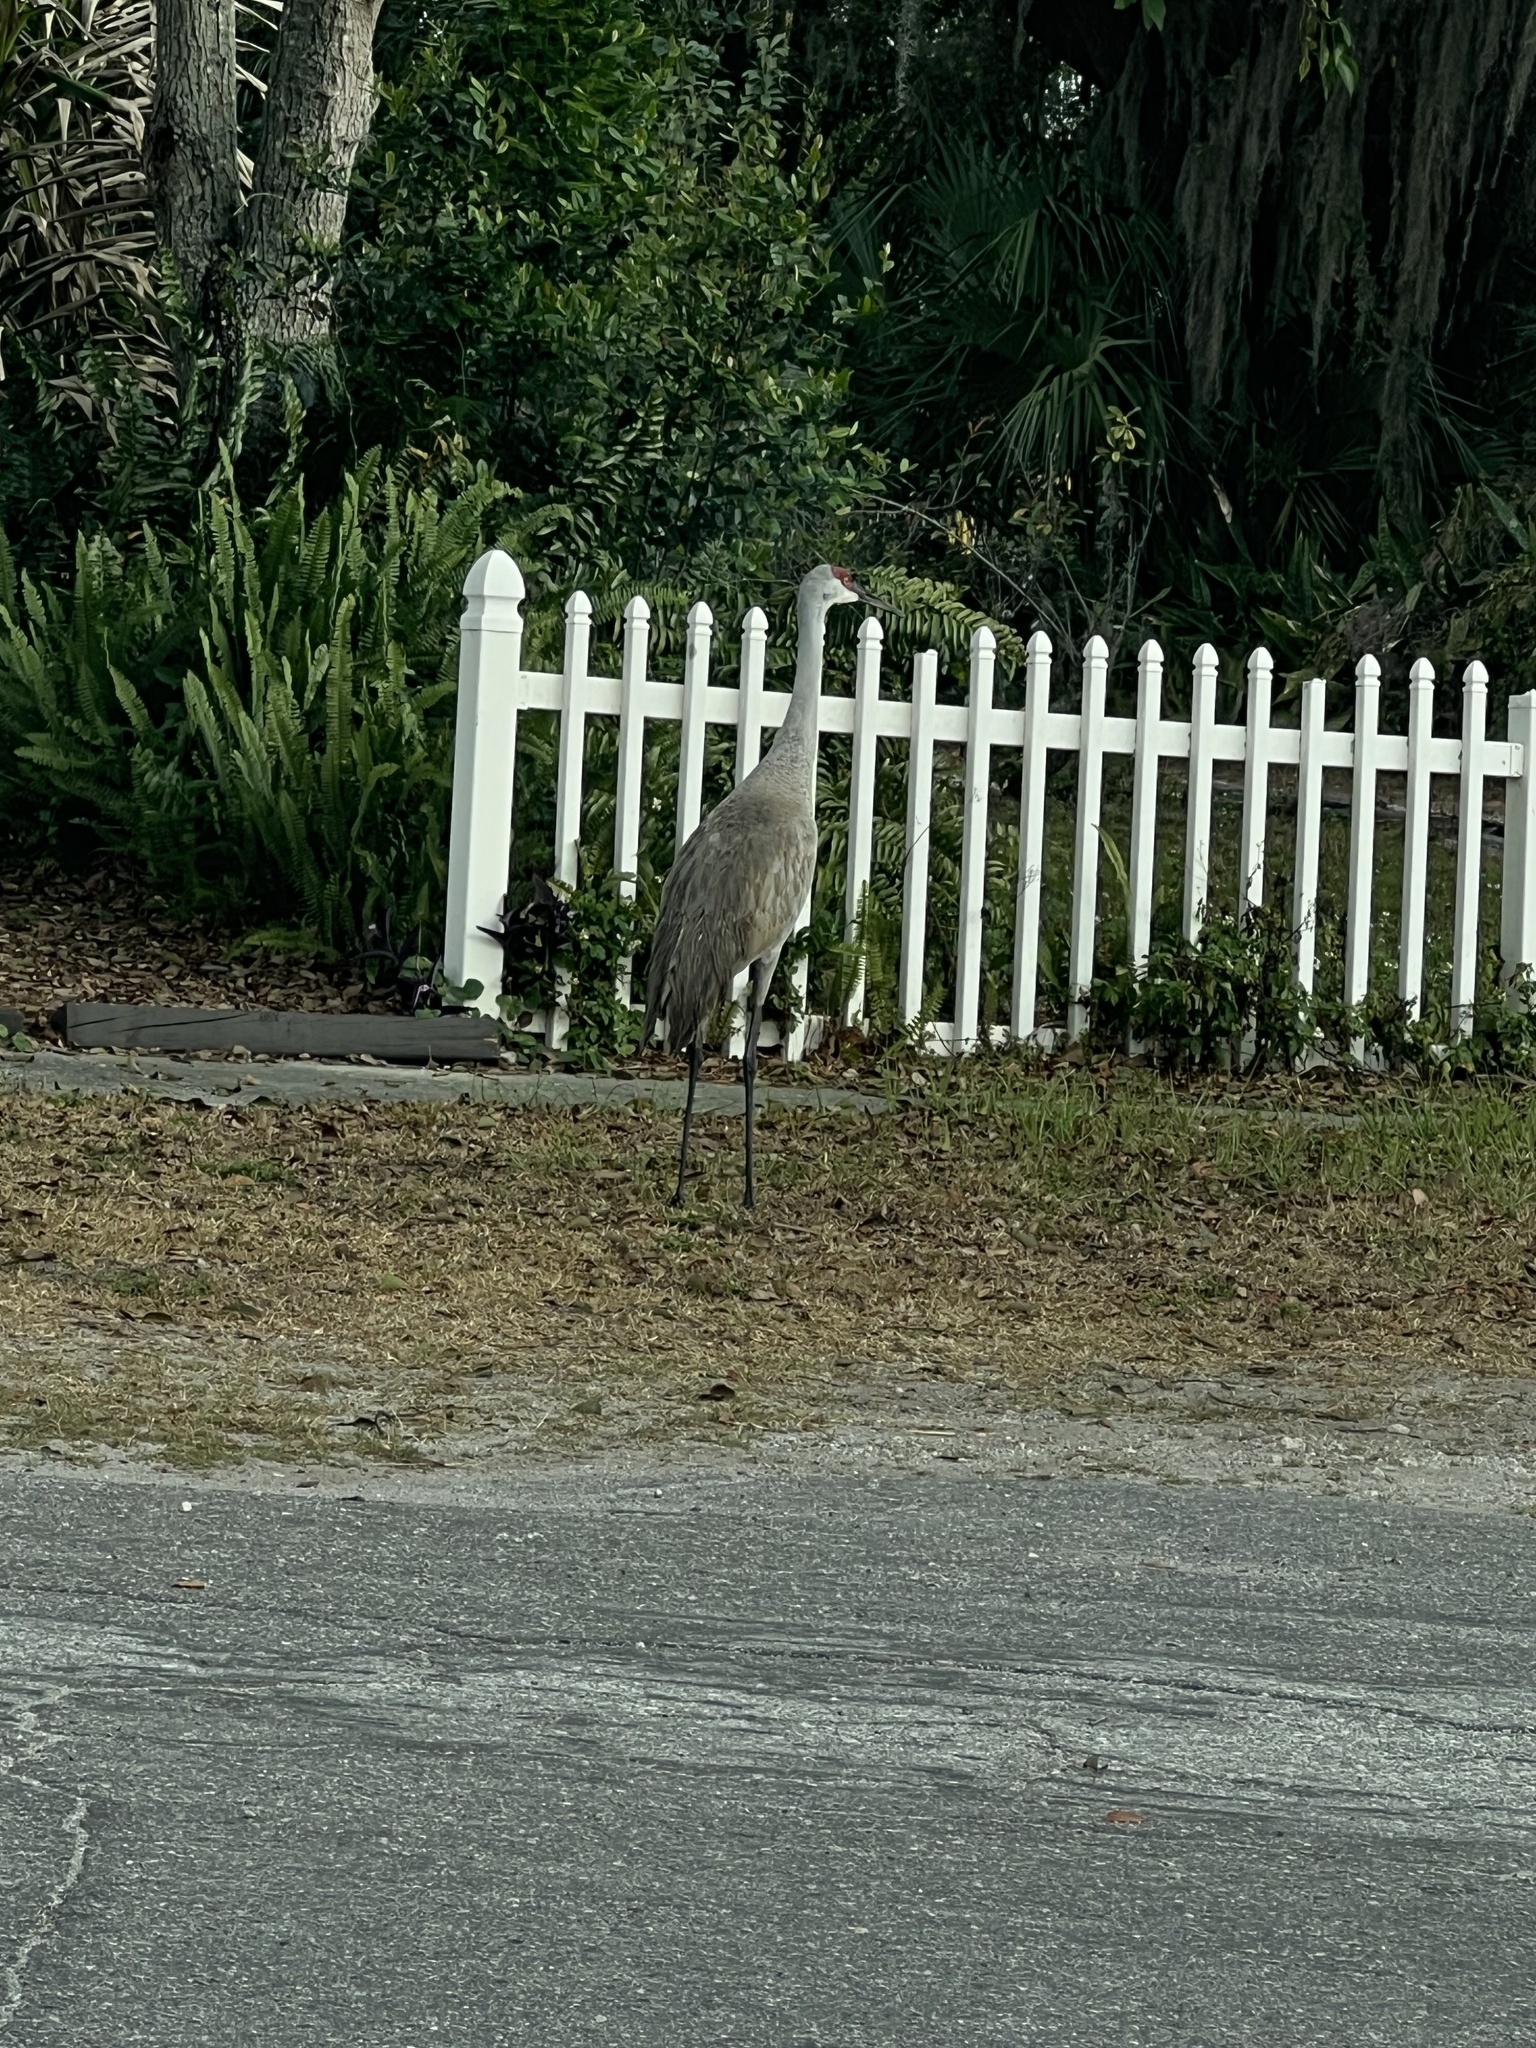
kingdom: Animalia
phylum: Chordata
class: Aves
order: Gruiformes
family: Gruidae
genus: Grus
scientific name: Grus canadensis
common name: Sandhill crane
